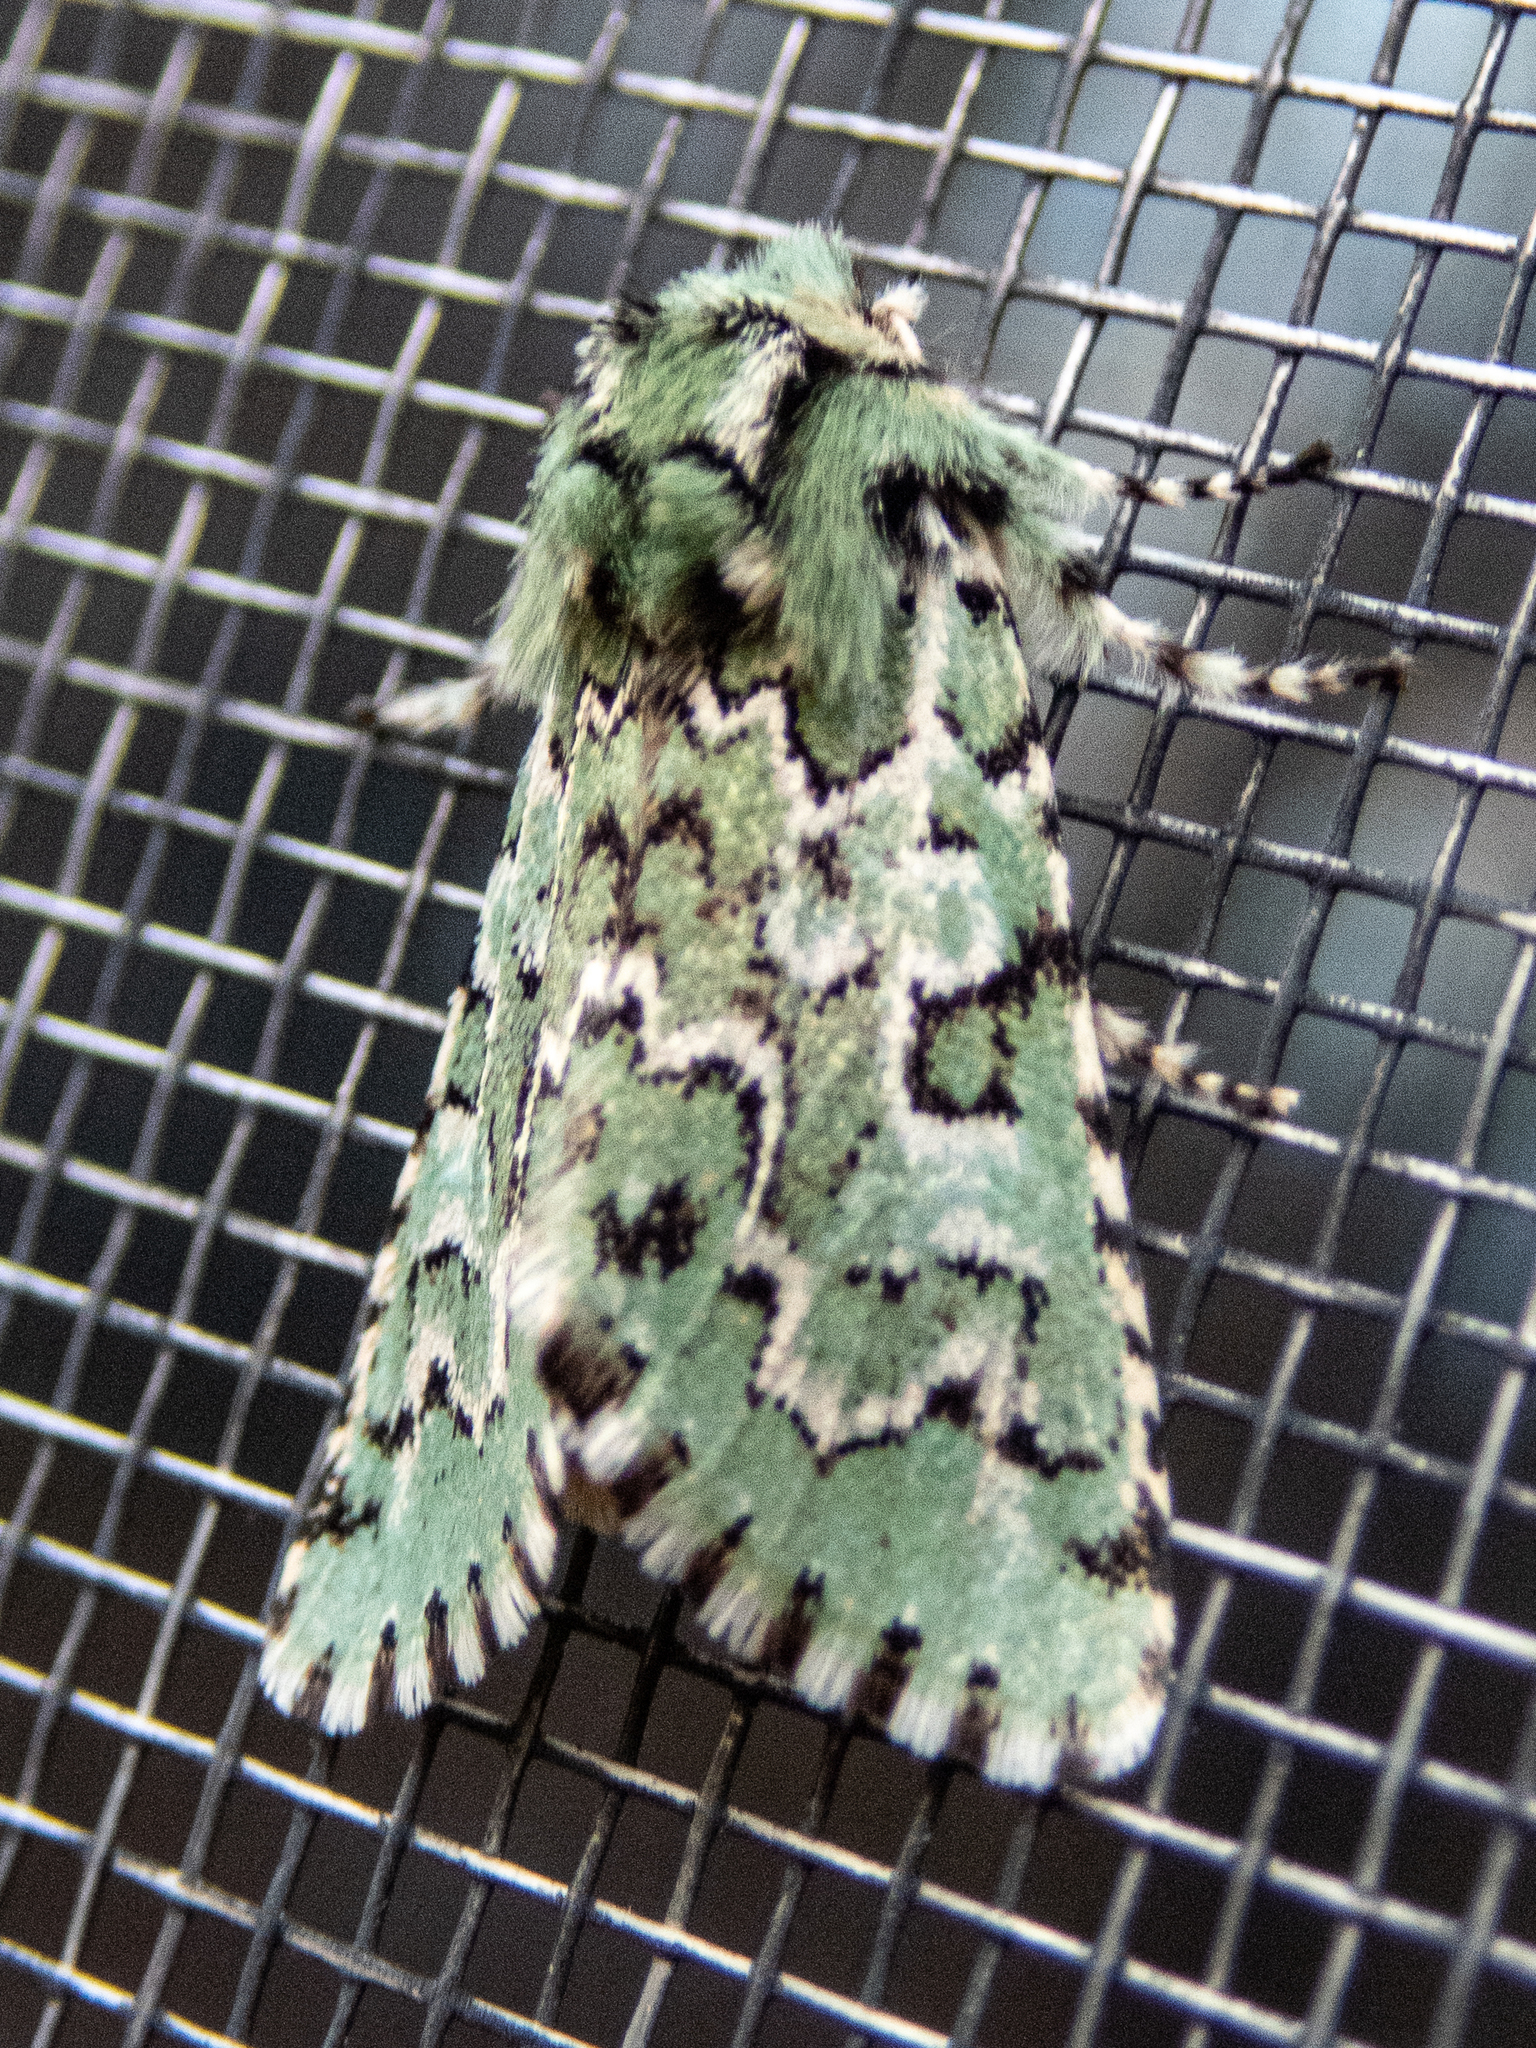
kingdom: Animalia
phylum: Arthropoda
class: Insecta
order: Lepidoptera
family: Noctuidae
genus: Feralia
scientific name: Feralia jocosa
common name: Joker
